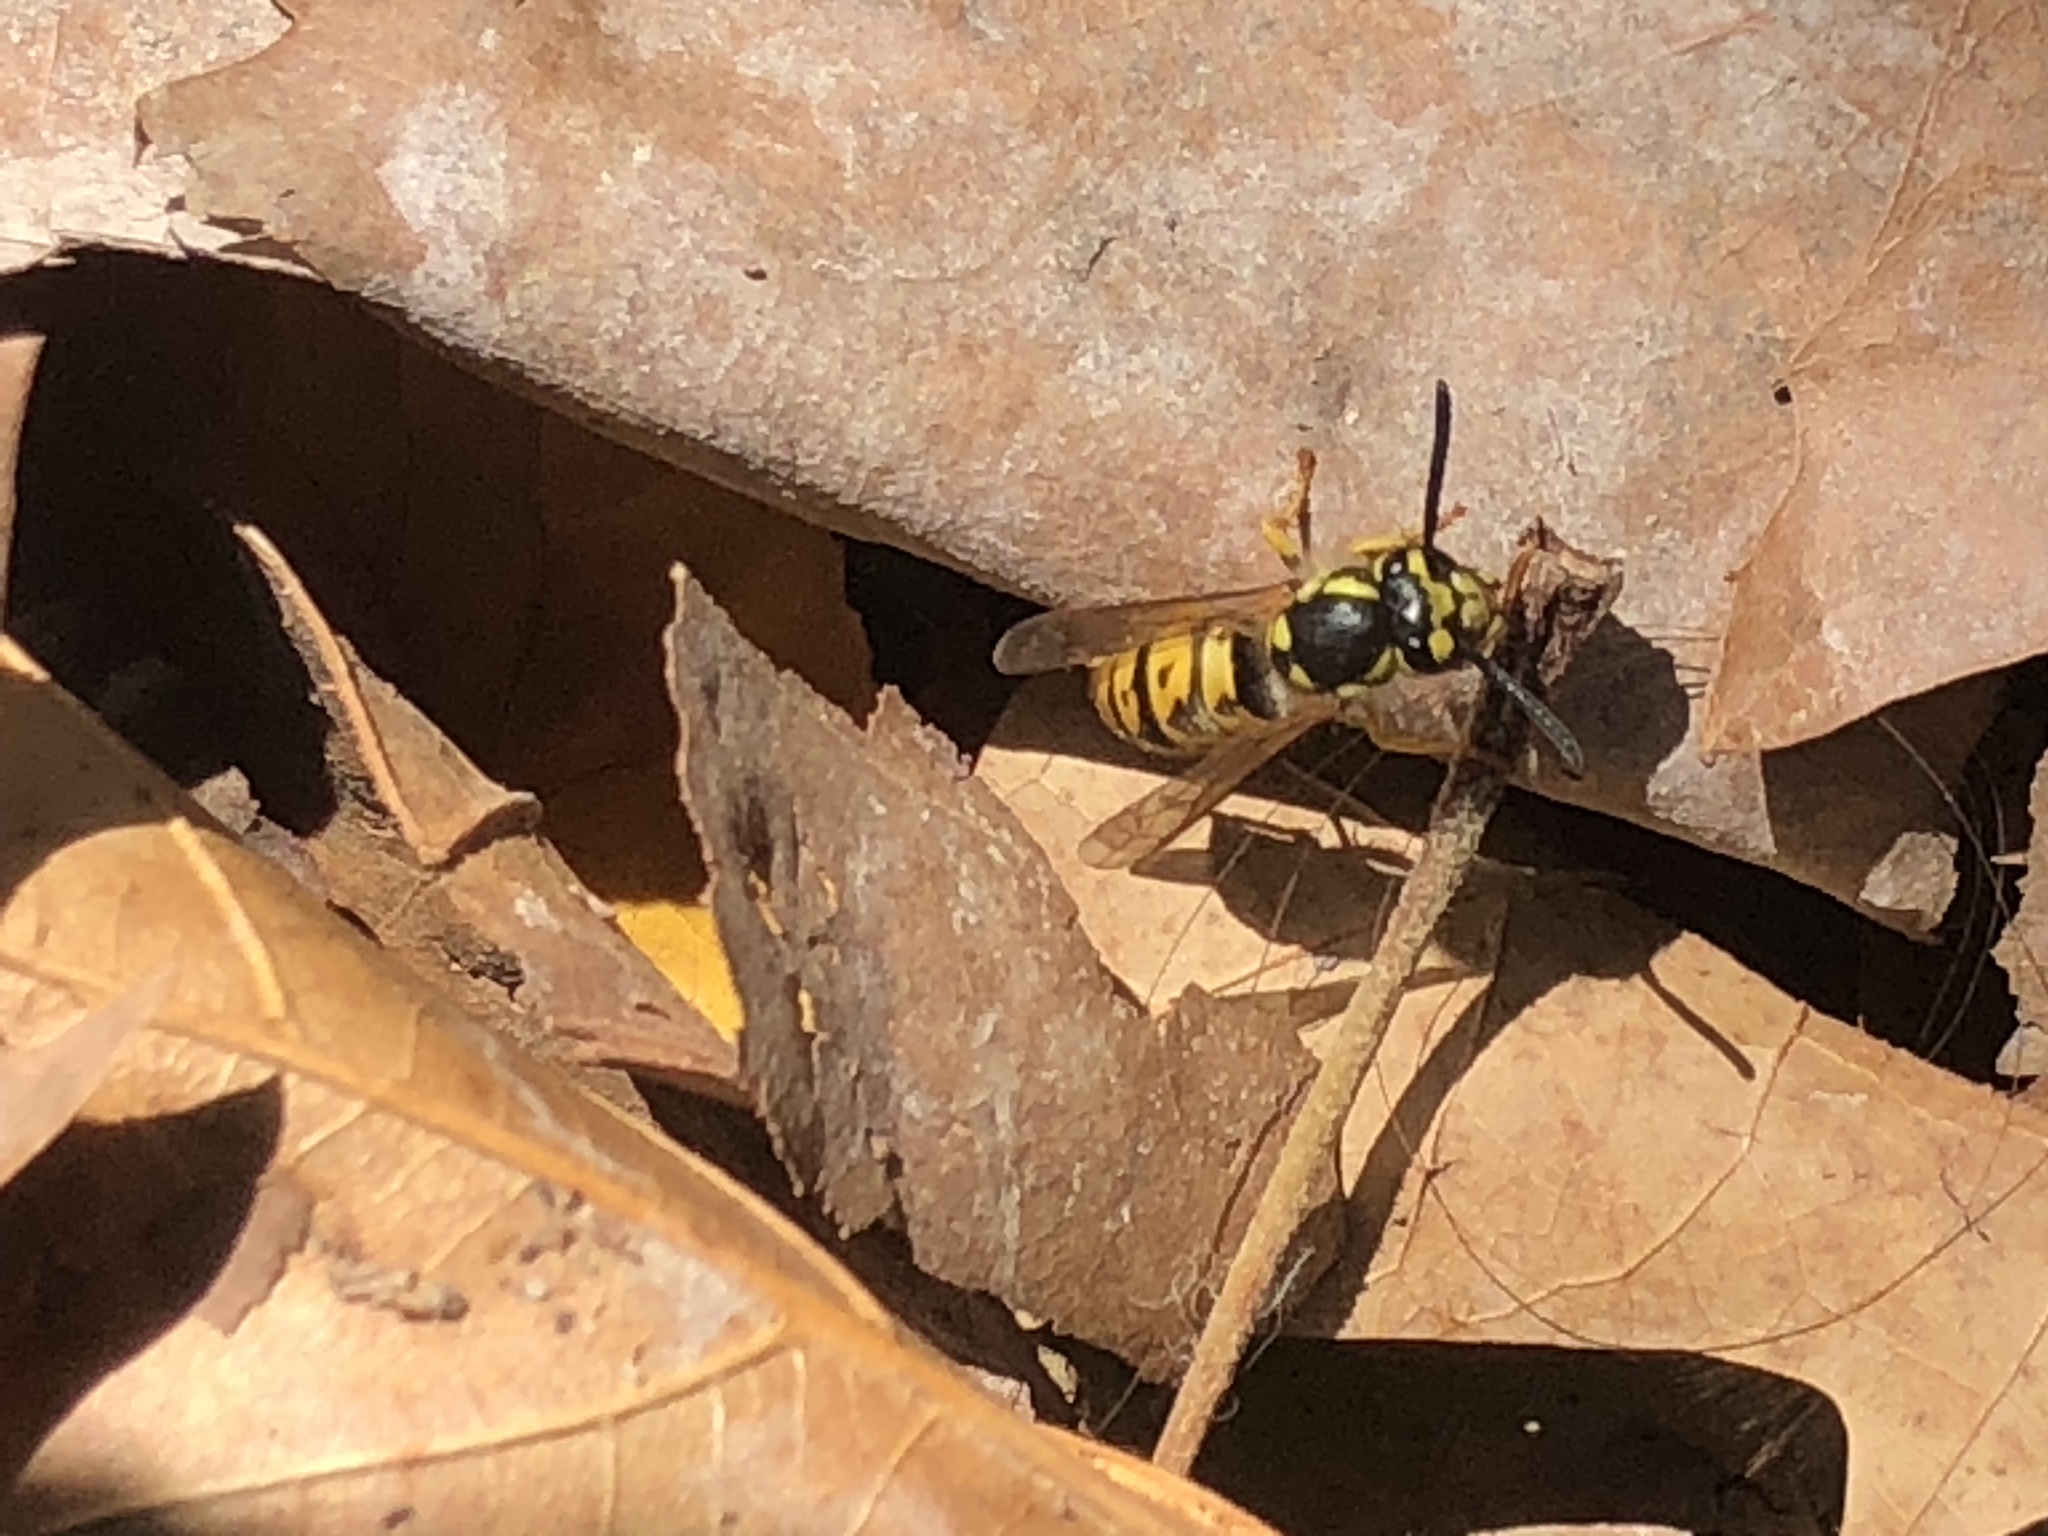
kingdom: Animalia
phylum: Arthropoda
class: Insecta
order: Hymenoptera
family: Vespidae
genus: Vespula
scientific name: Vespula germanica
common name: German wasp
